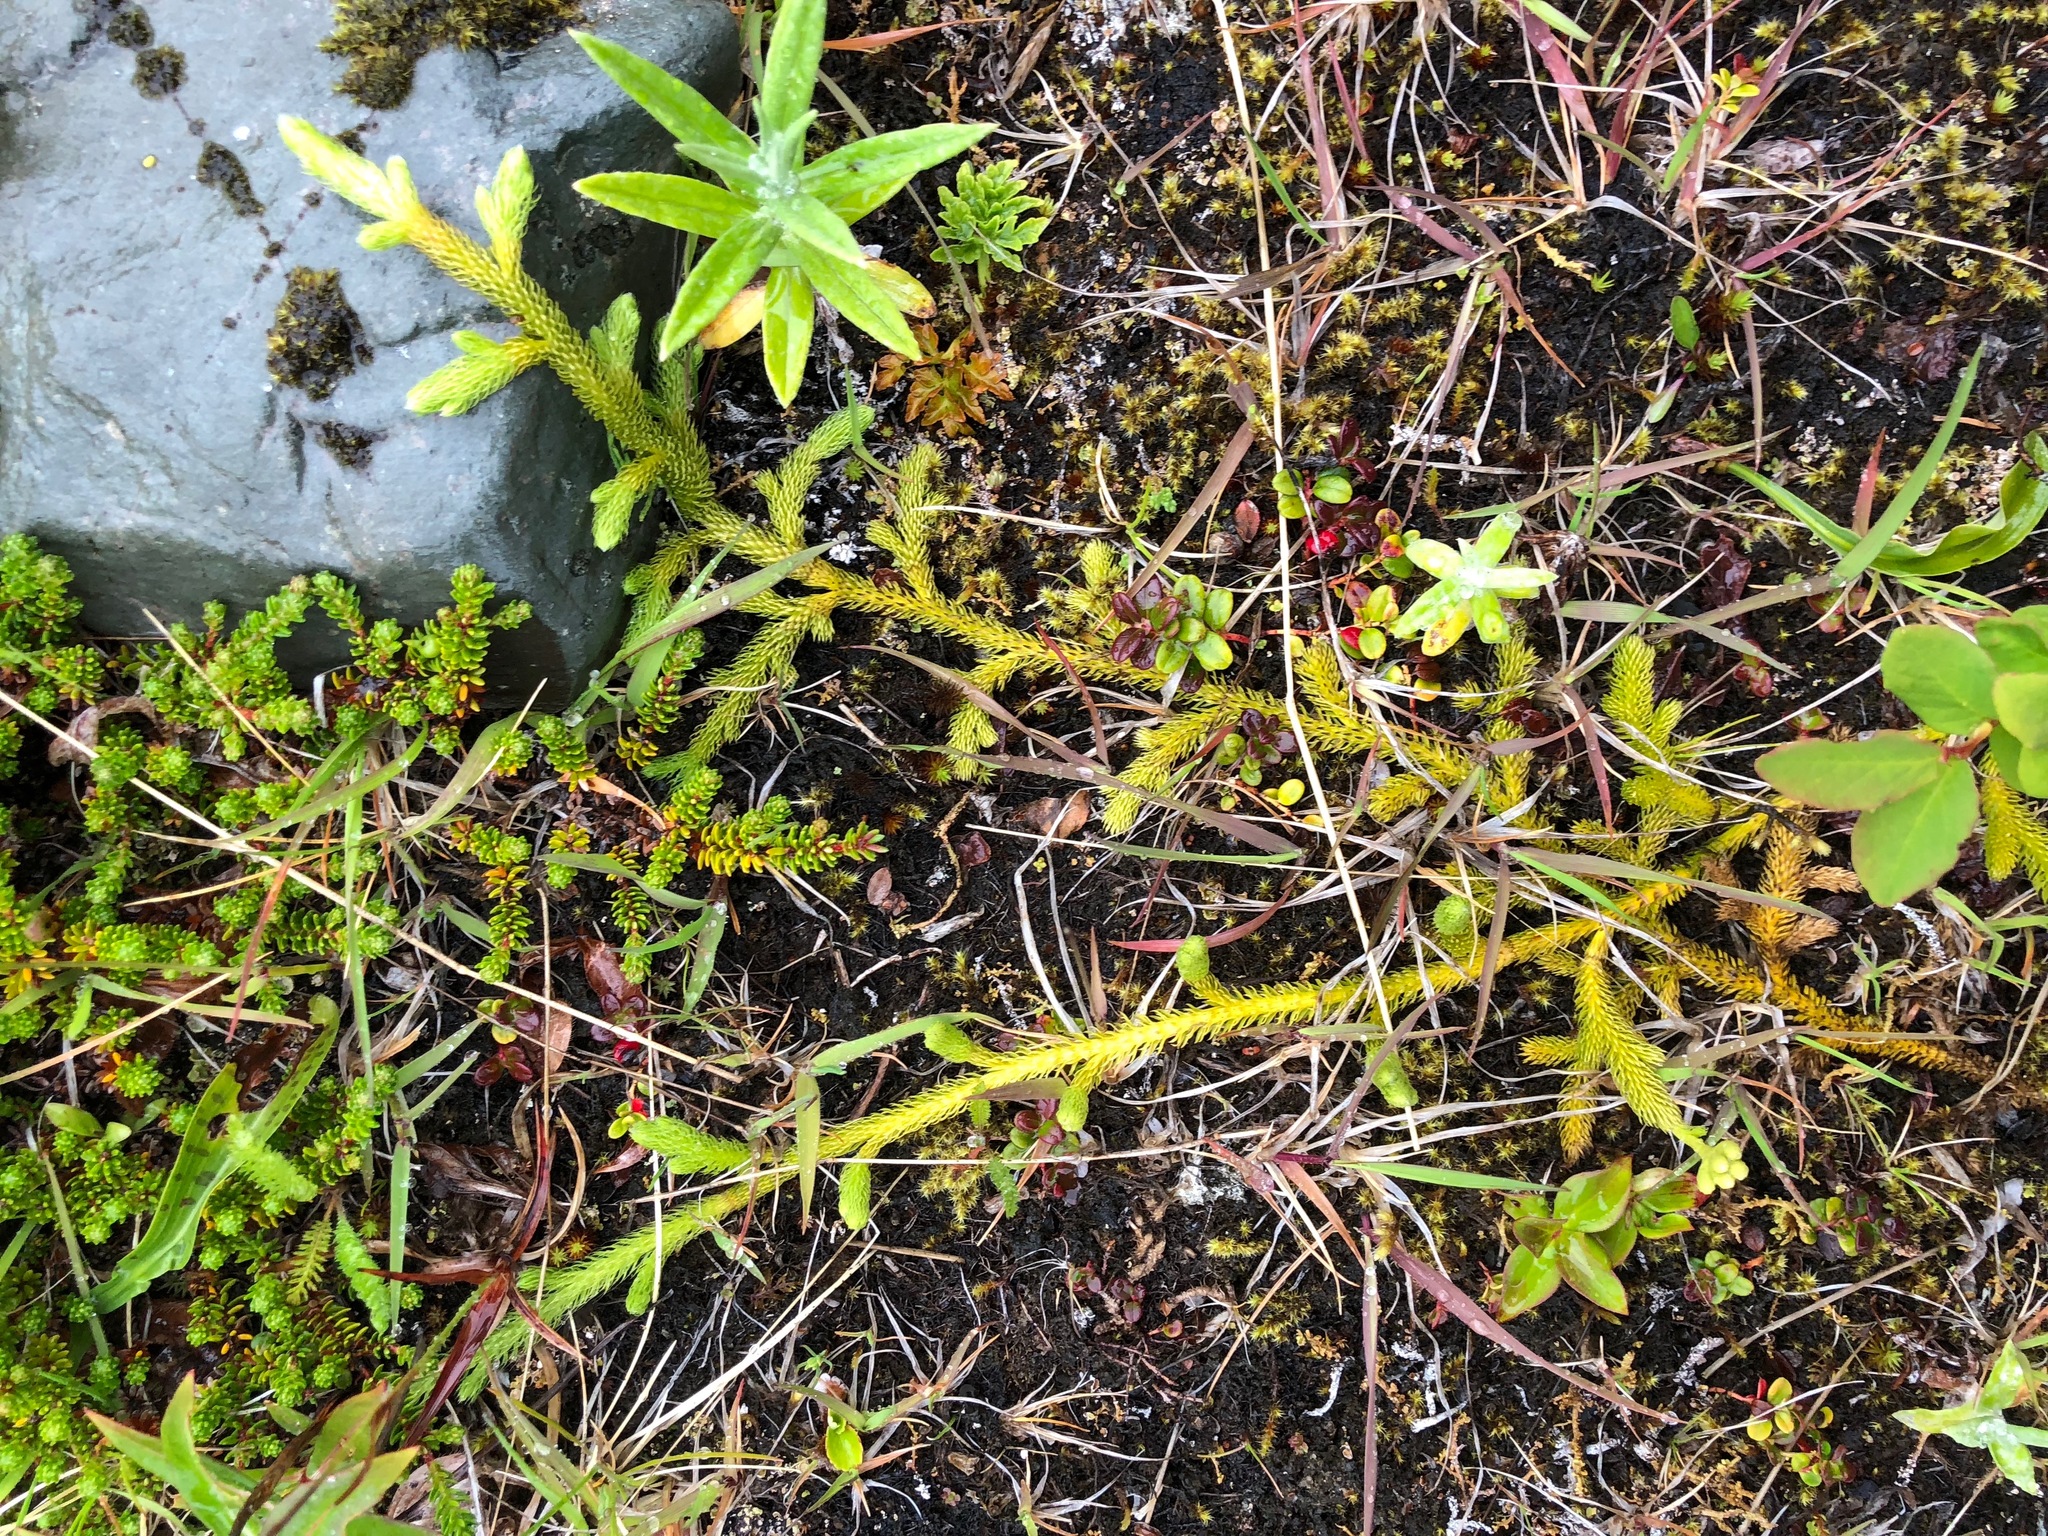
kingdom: Plantae
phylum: Tracheophyta
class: Lycopodiopsida
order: Lycopodiales
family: Lycopodiaceae
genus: Lycopodium
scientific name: Lycopodium lagopus
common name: One-cone clubmoss
